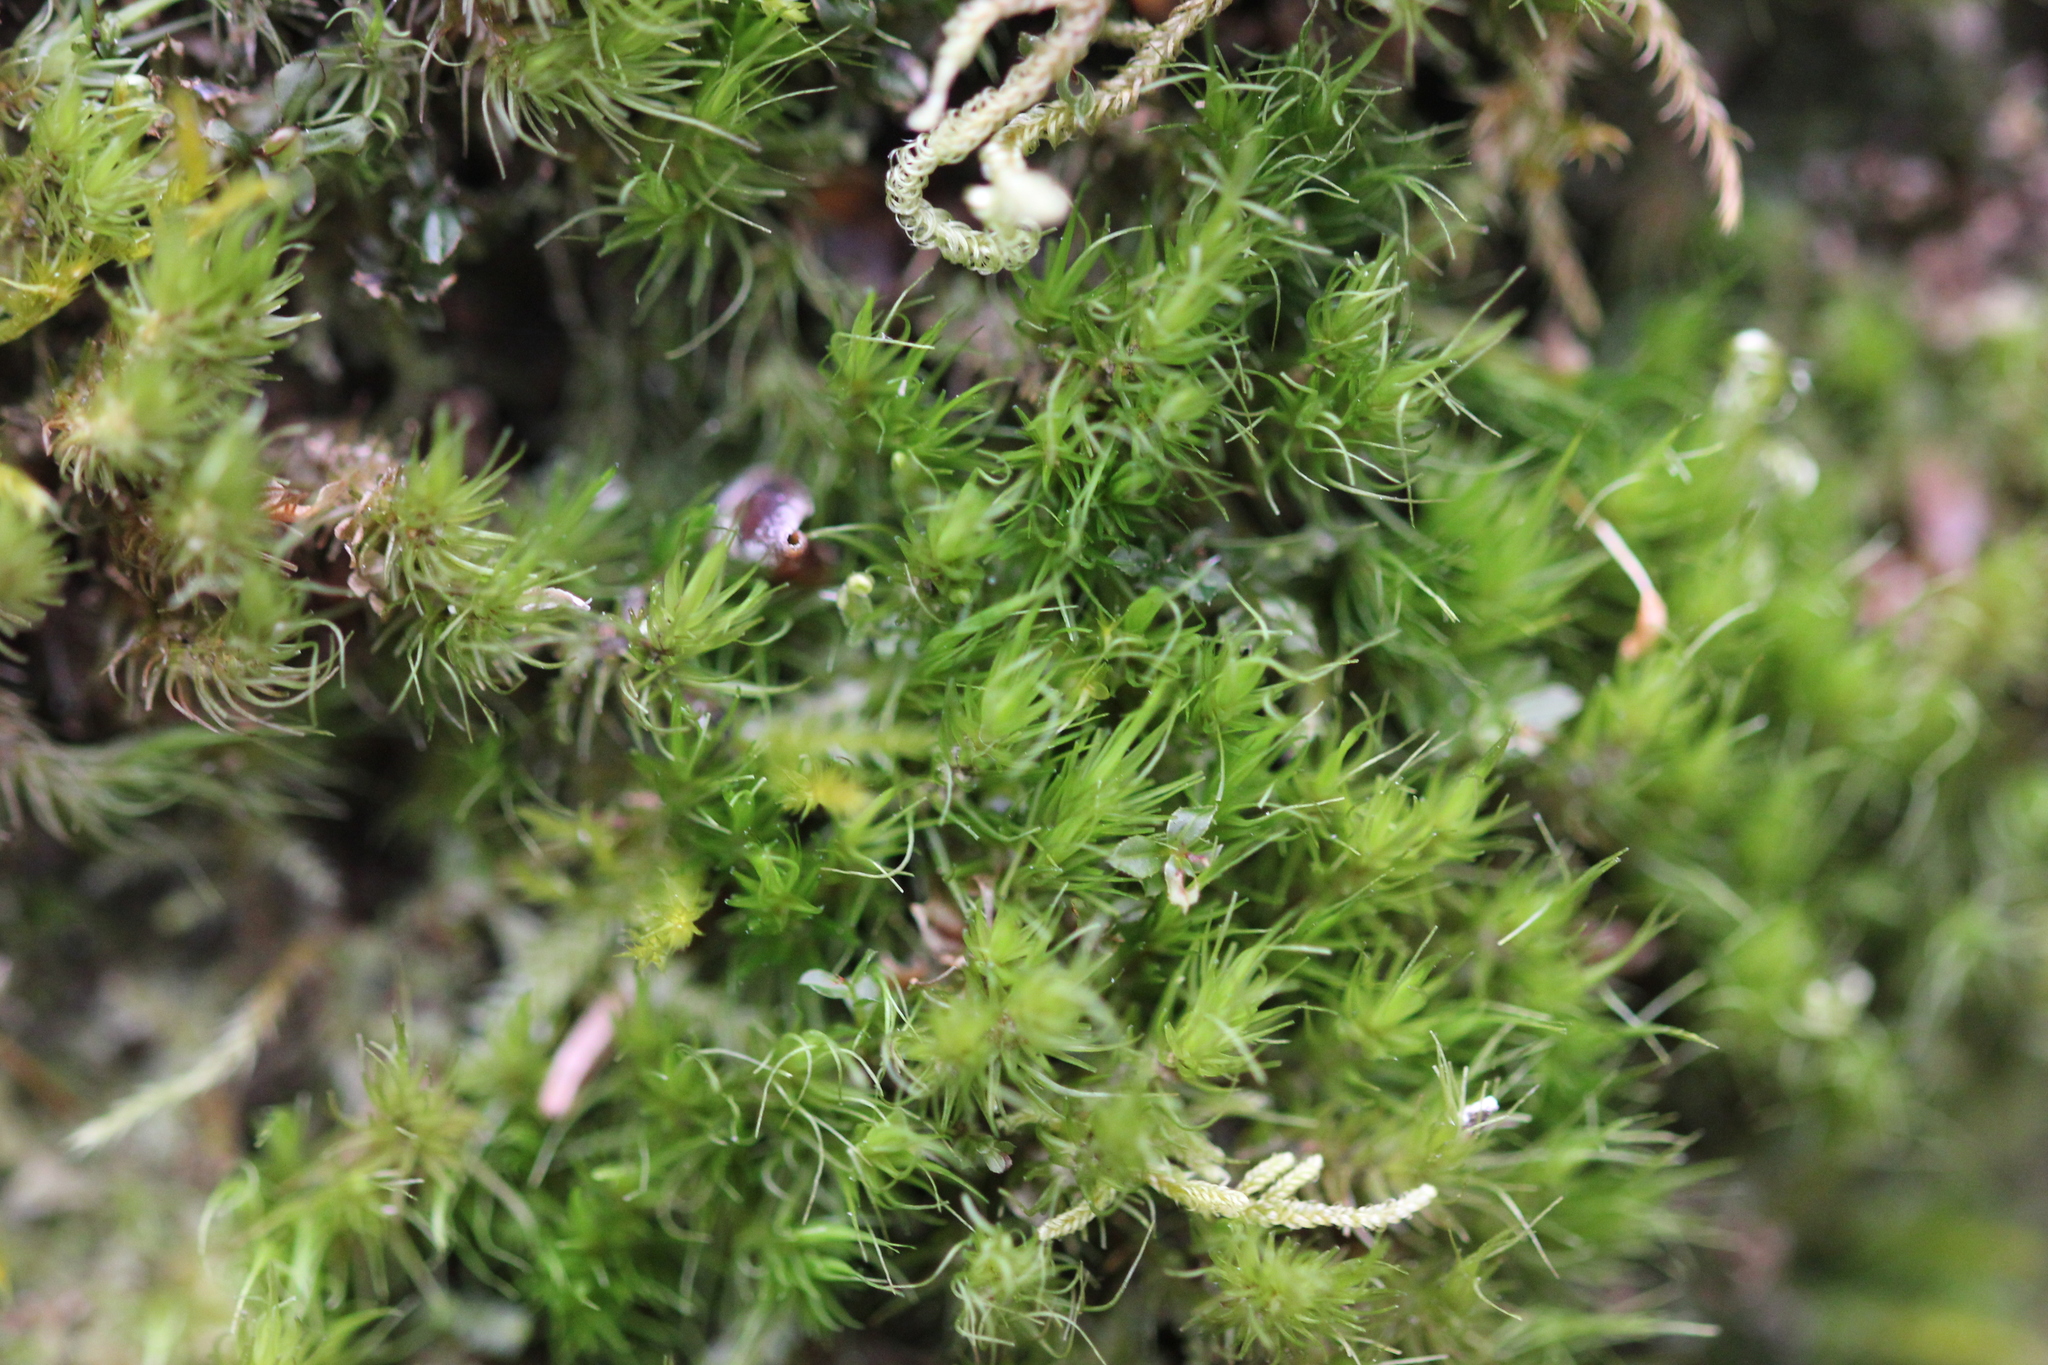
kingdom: Plantae
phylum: Bryophyta
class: Bryopsida
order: Dicranales
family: Dicranaceae
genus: Dicranum
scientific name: Dicranum viride
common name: Green broom moss
